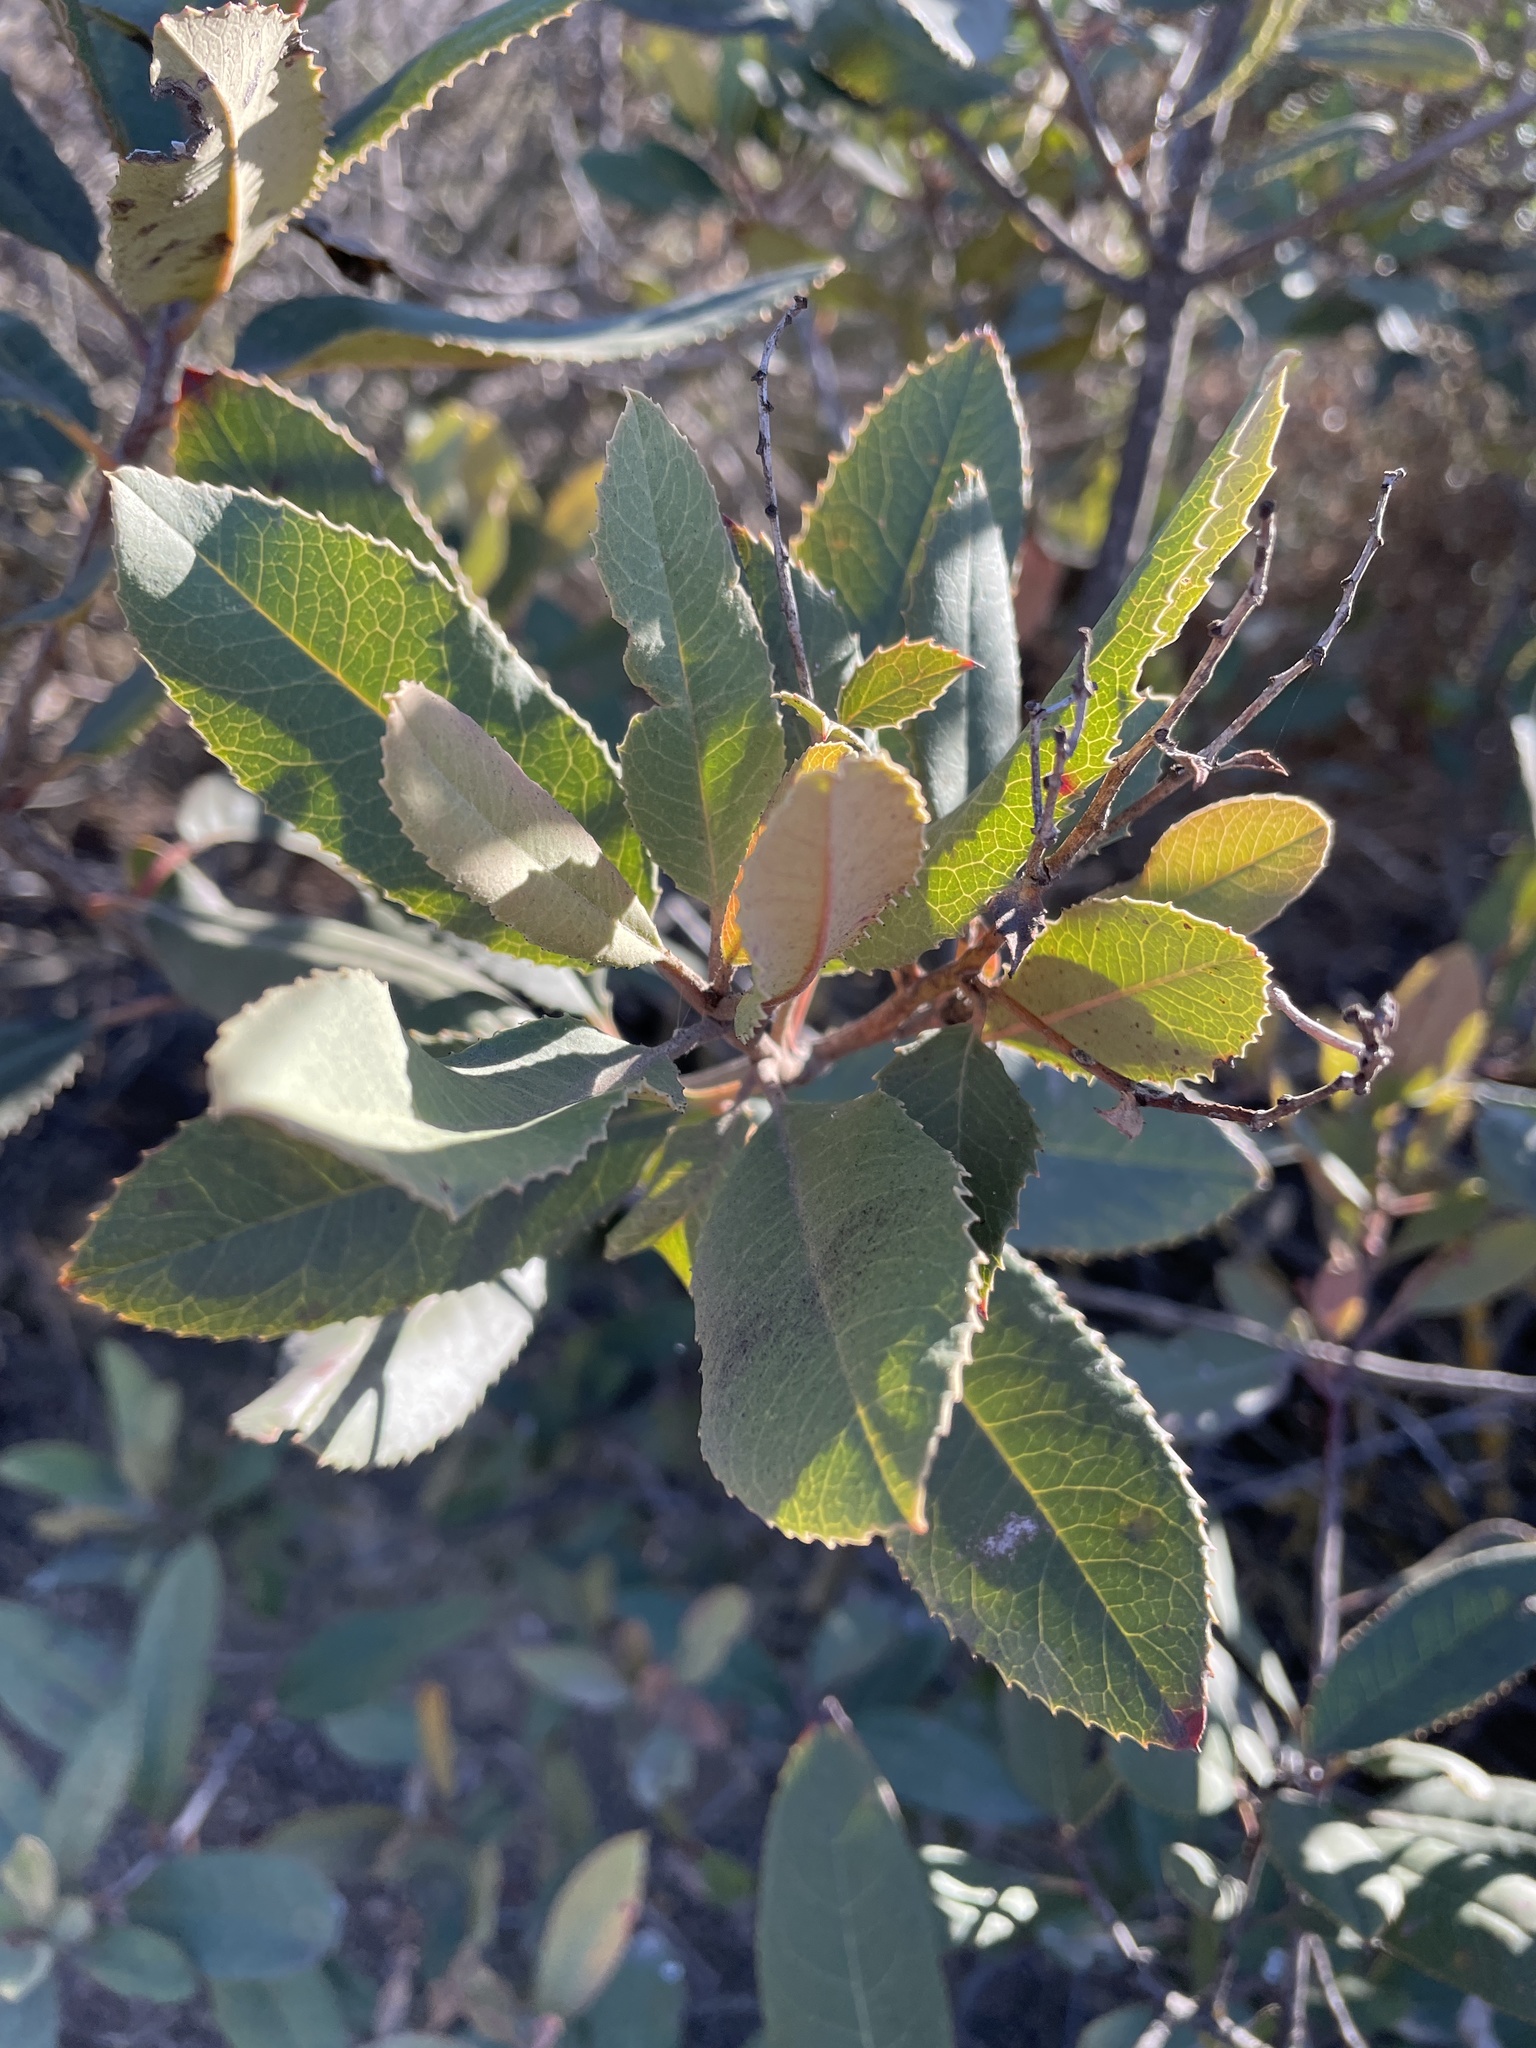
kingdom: Plantae
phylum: Tracheophyta
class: Magnoliopsida
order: Rosales
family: Rosaceae
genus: Heteromeles
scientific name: Heteromeles arbutifolia
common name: California-holly
